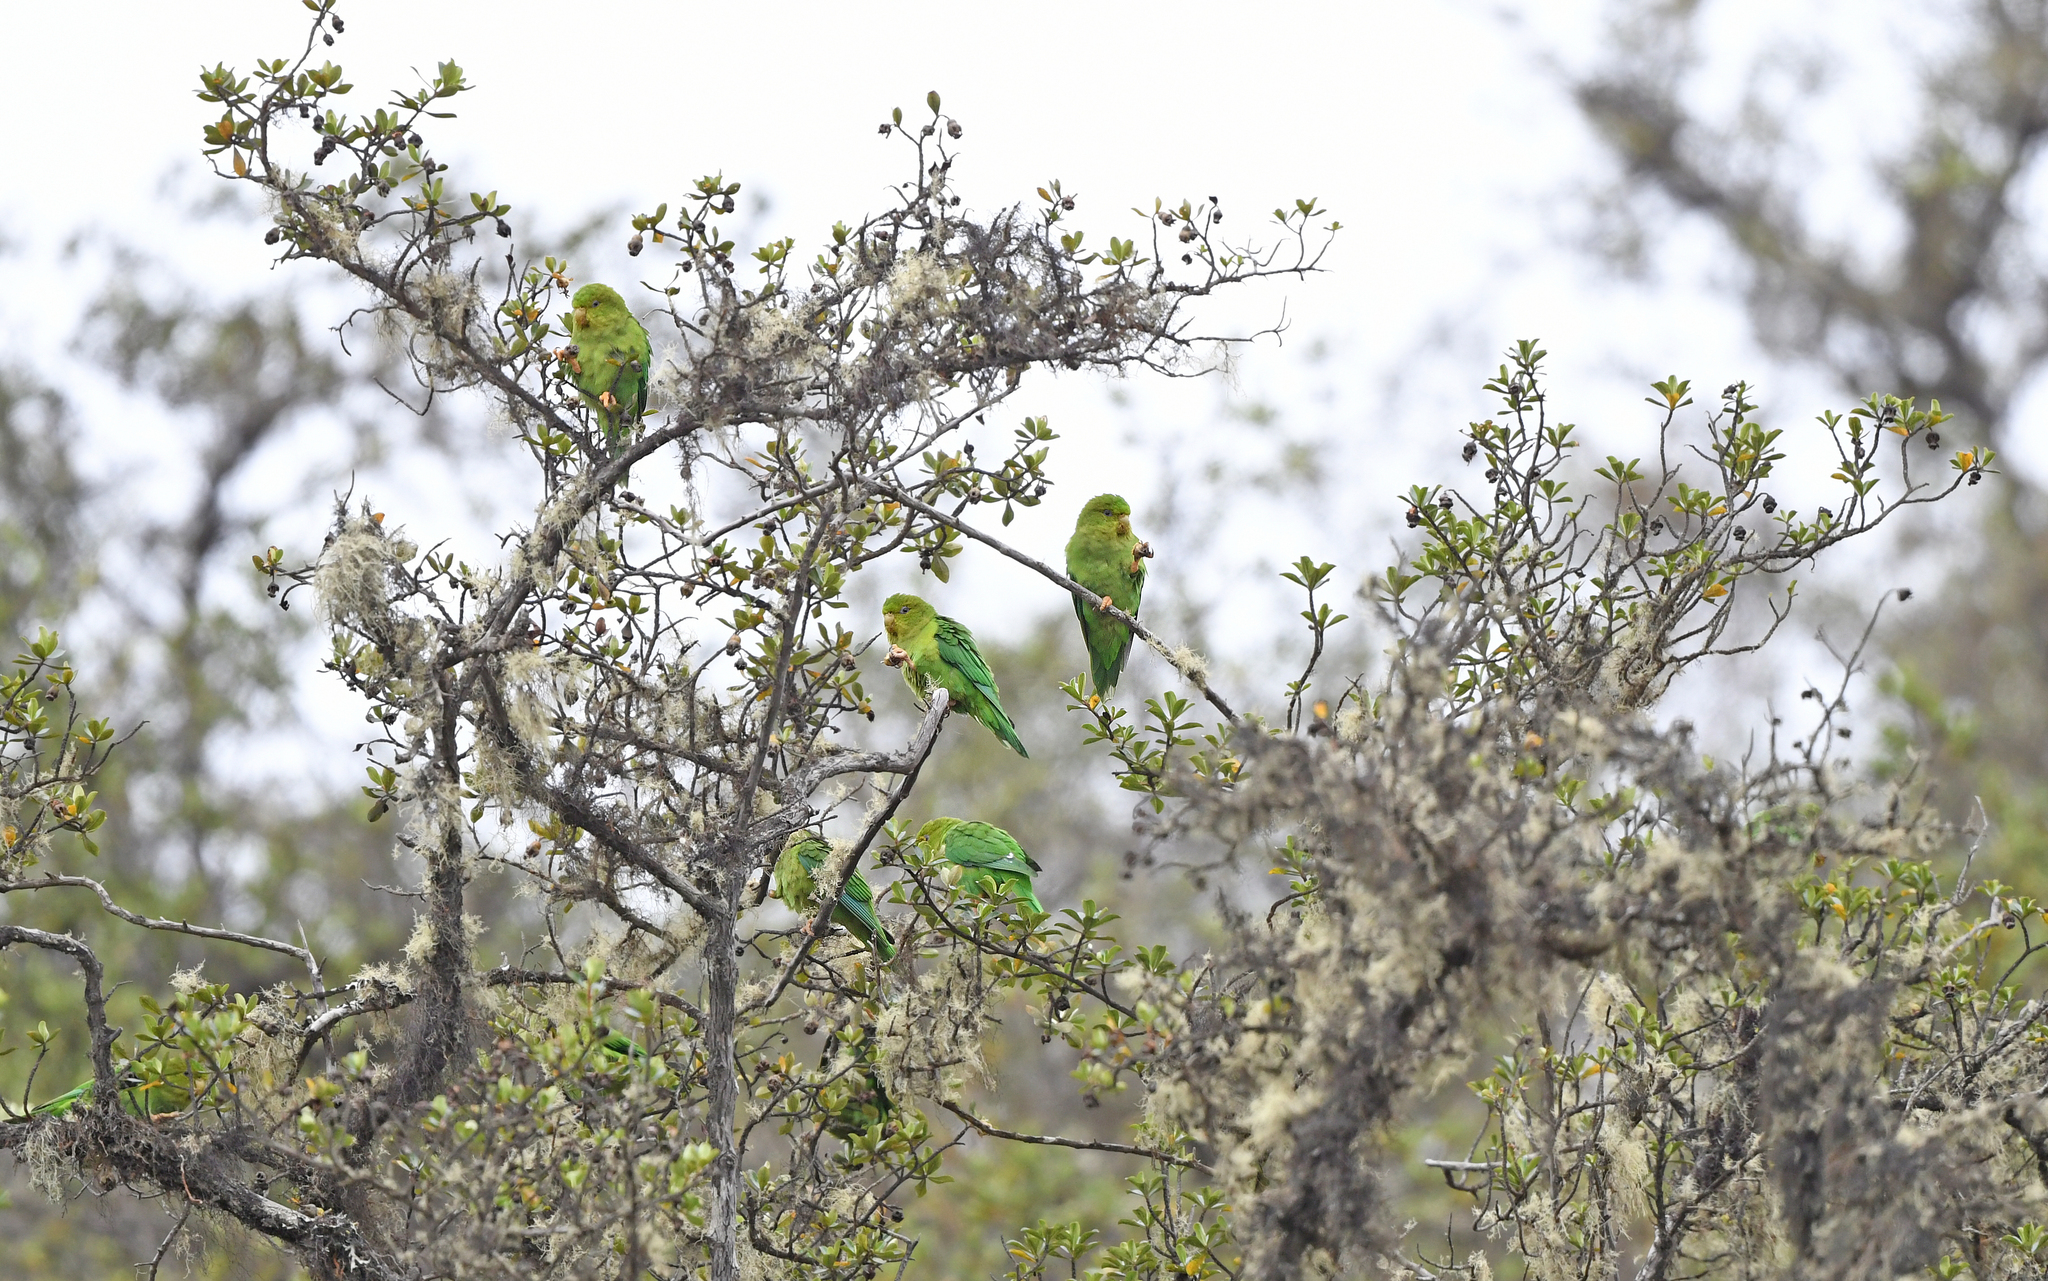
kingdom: Animalia
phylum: Chordata
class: Aves
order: Psittaciformes
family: Psittacidae
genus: Bolborhynchus
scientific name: Bolborhynchus orbygnesius
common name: Andean parakeet
